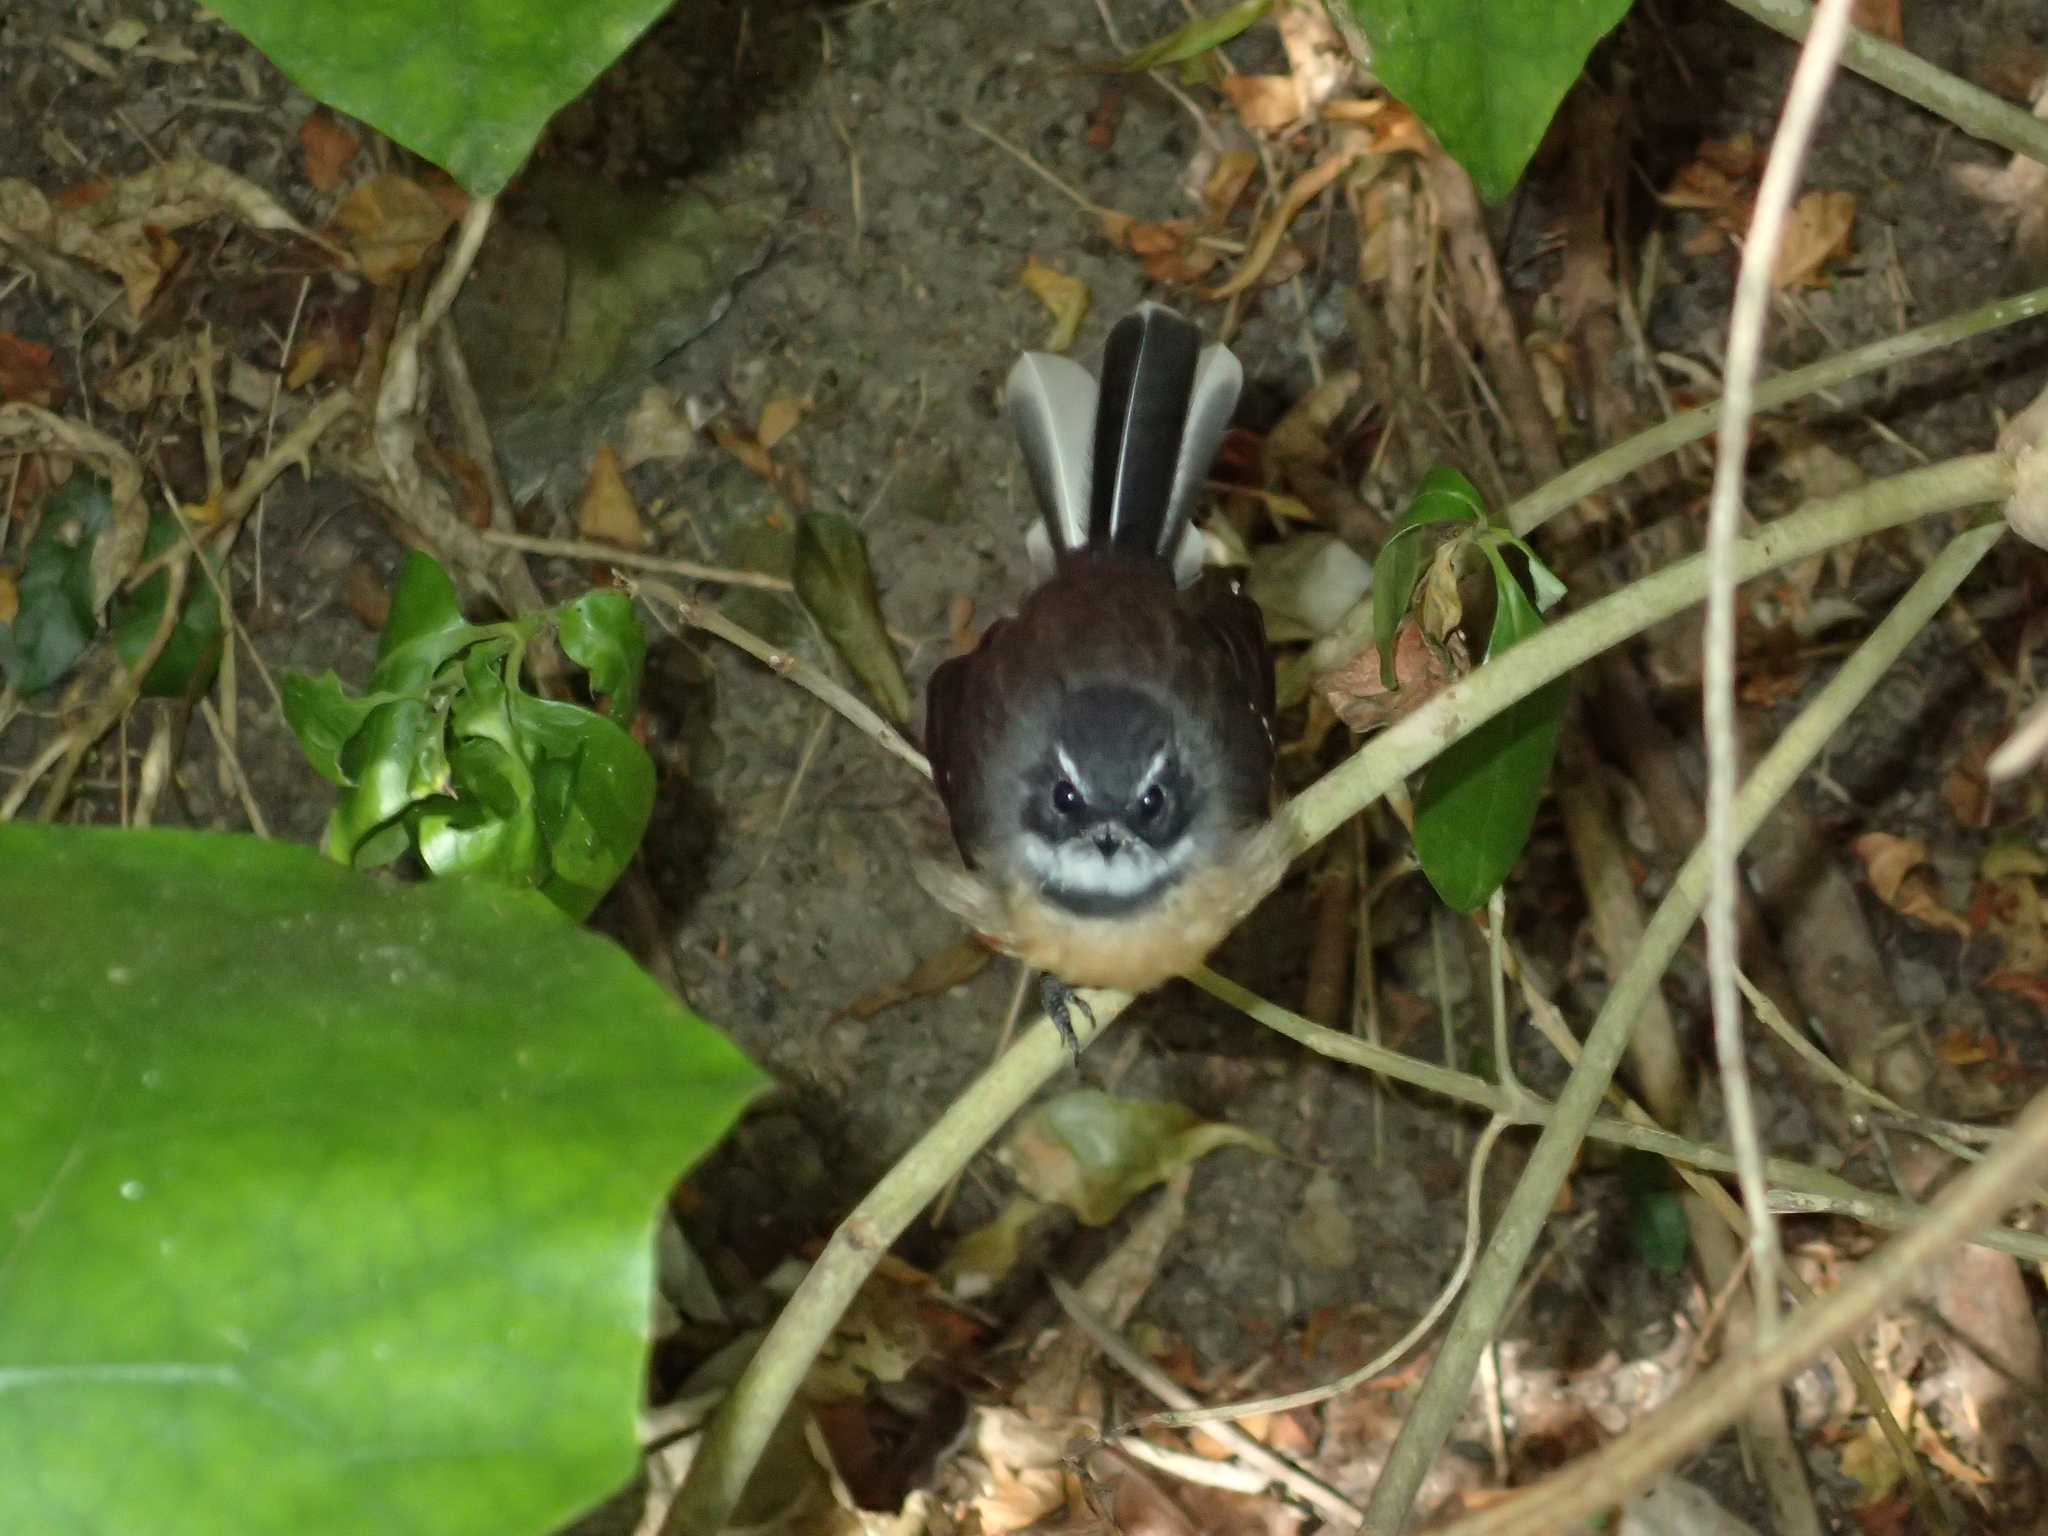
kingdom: Animalia
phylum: Chordata
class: Aves
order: Passeriformes
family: Rhipiduridae
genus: Rhipidura
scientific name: Rhipidura fuliginosa
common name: New zealand fantail
